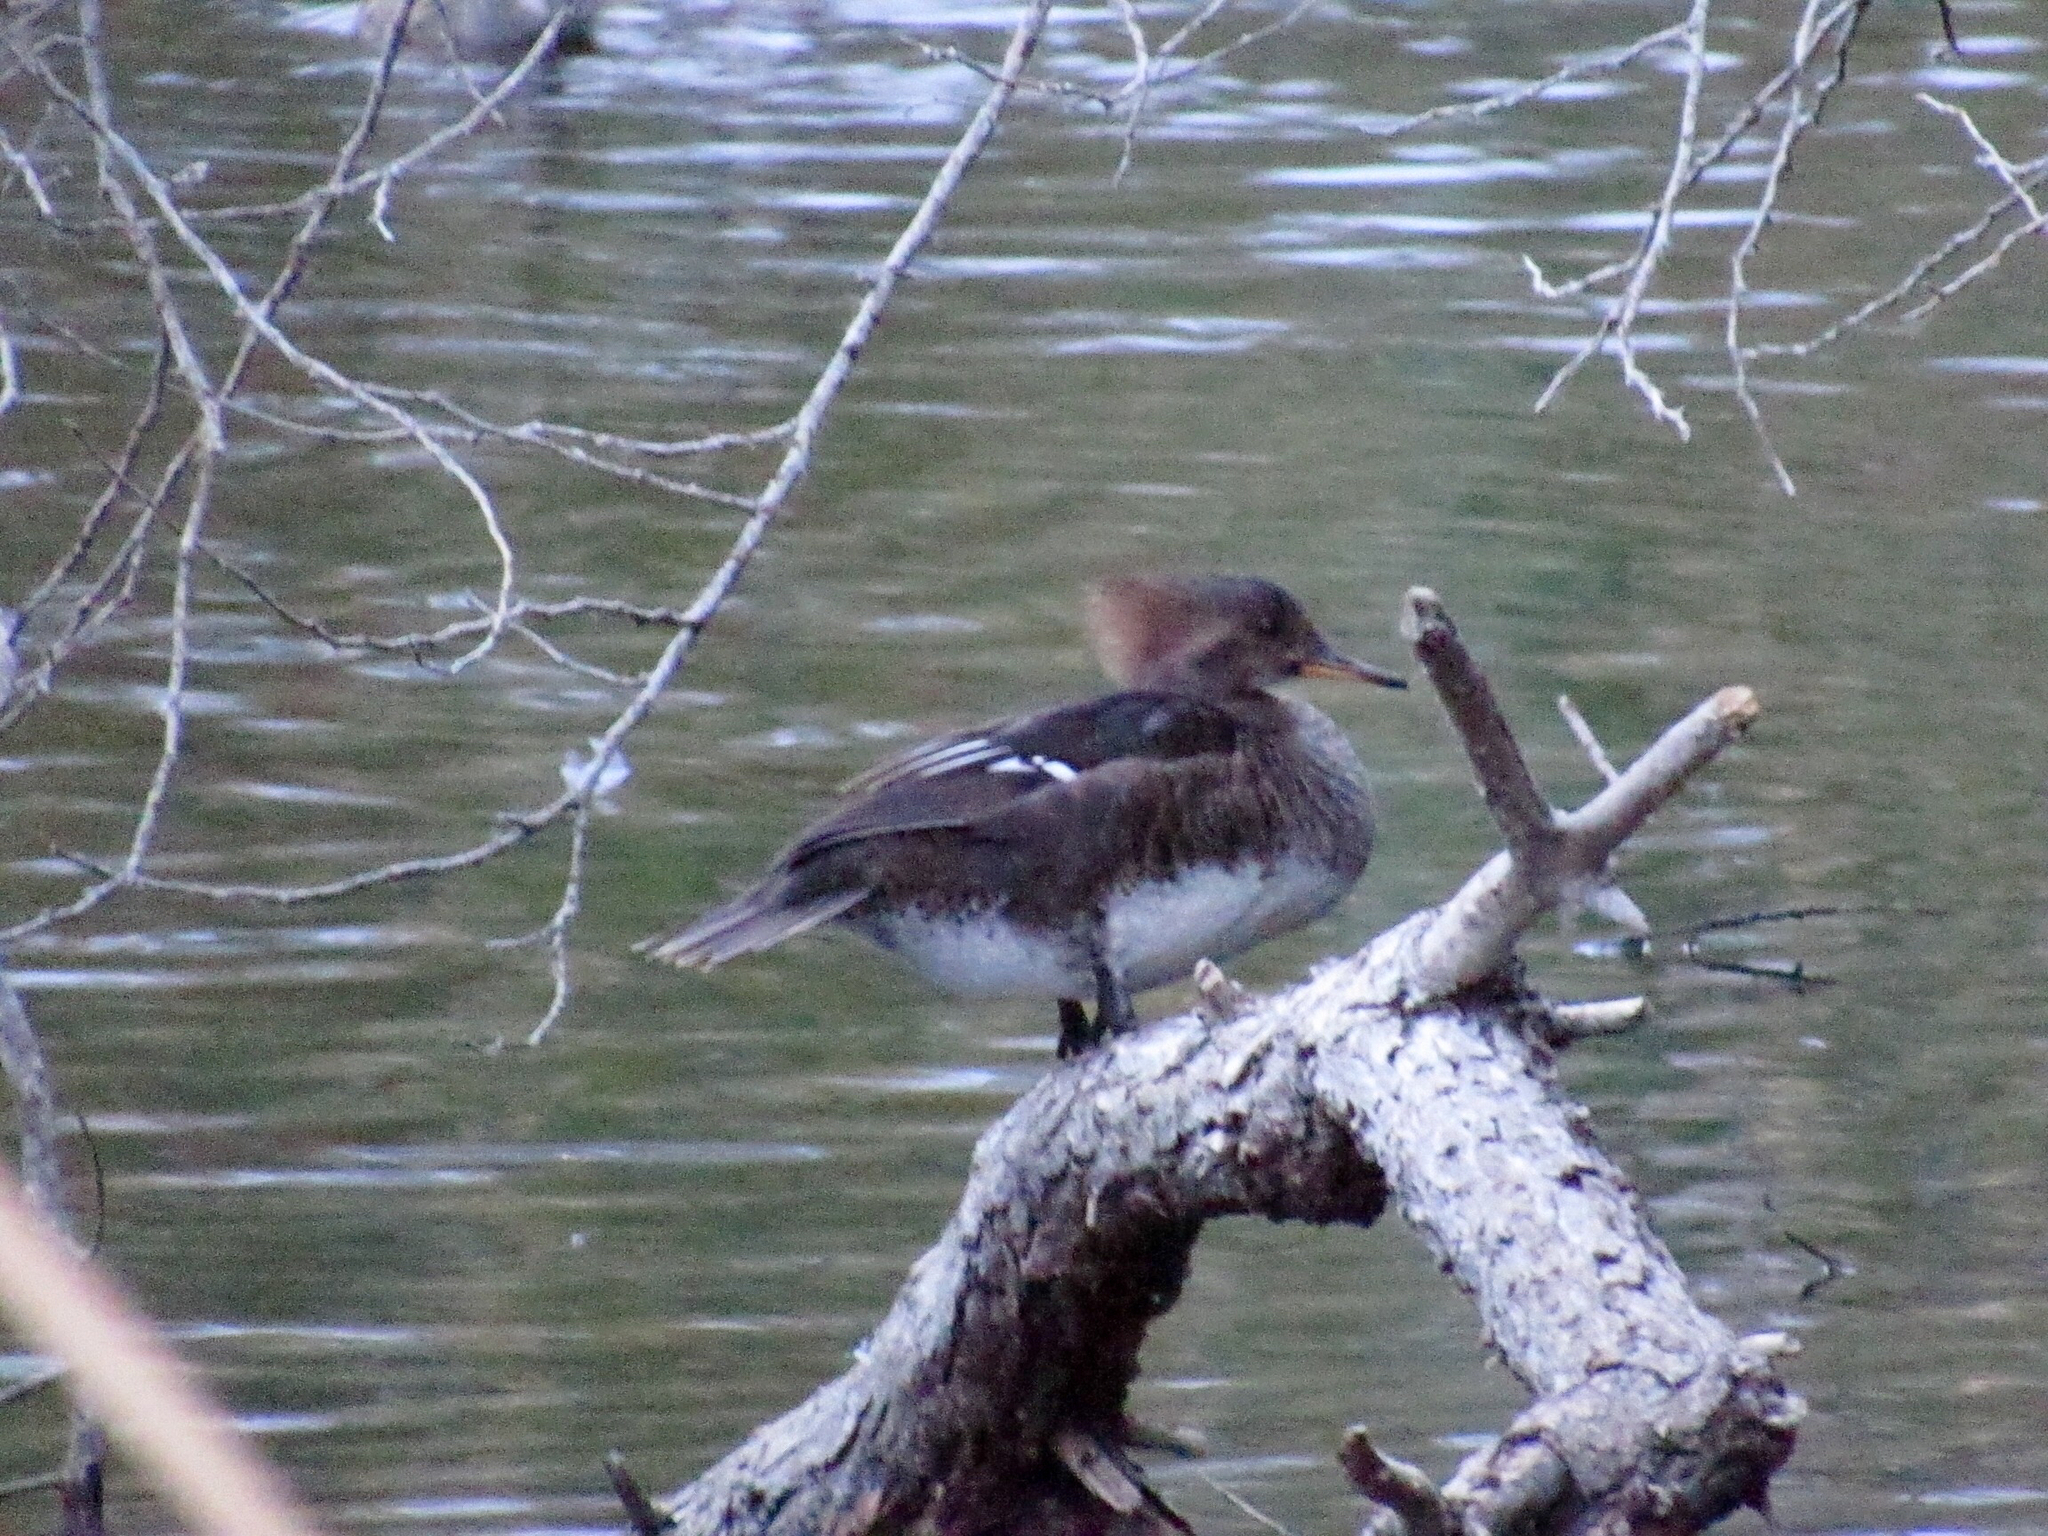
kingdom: Animalia
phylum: Chordata
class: Aves
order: Anseriformes
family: Anatidae
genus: Lophodytes
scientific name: Lophodytes cucullatus
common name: Hooded merganser
